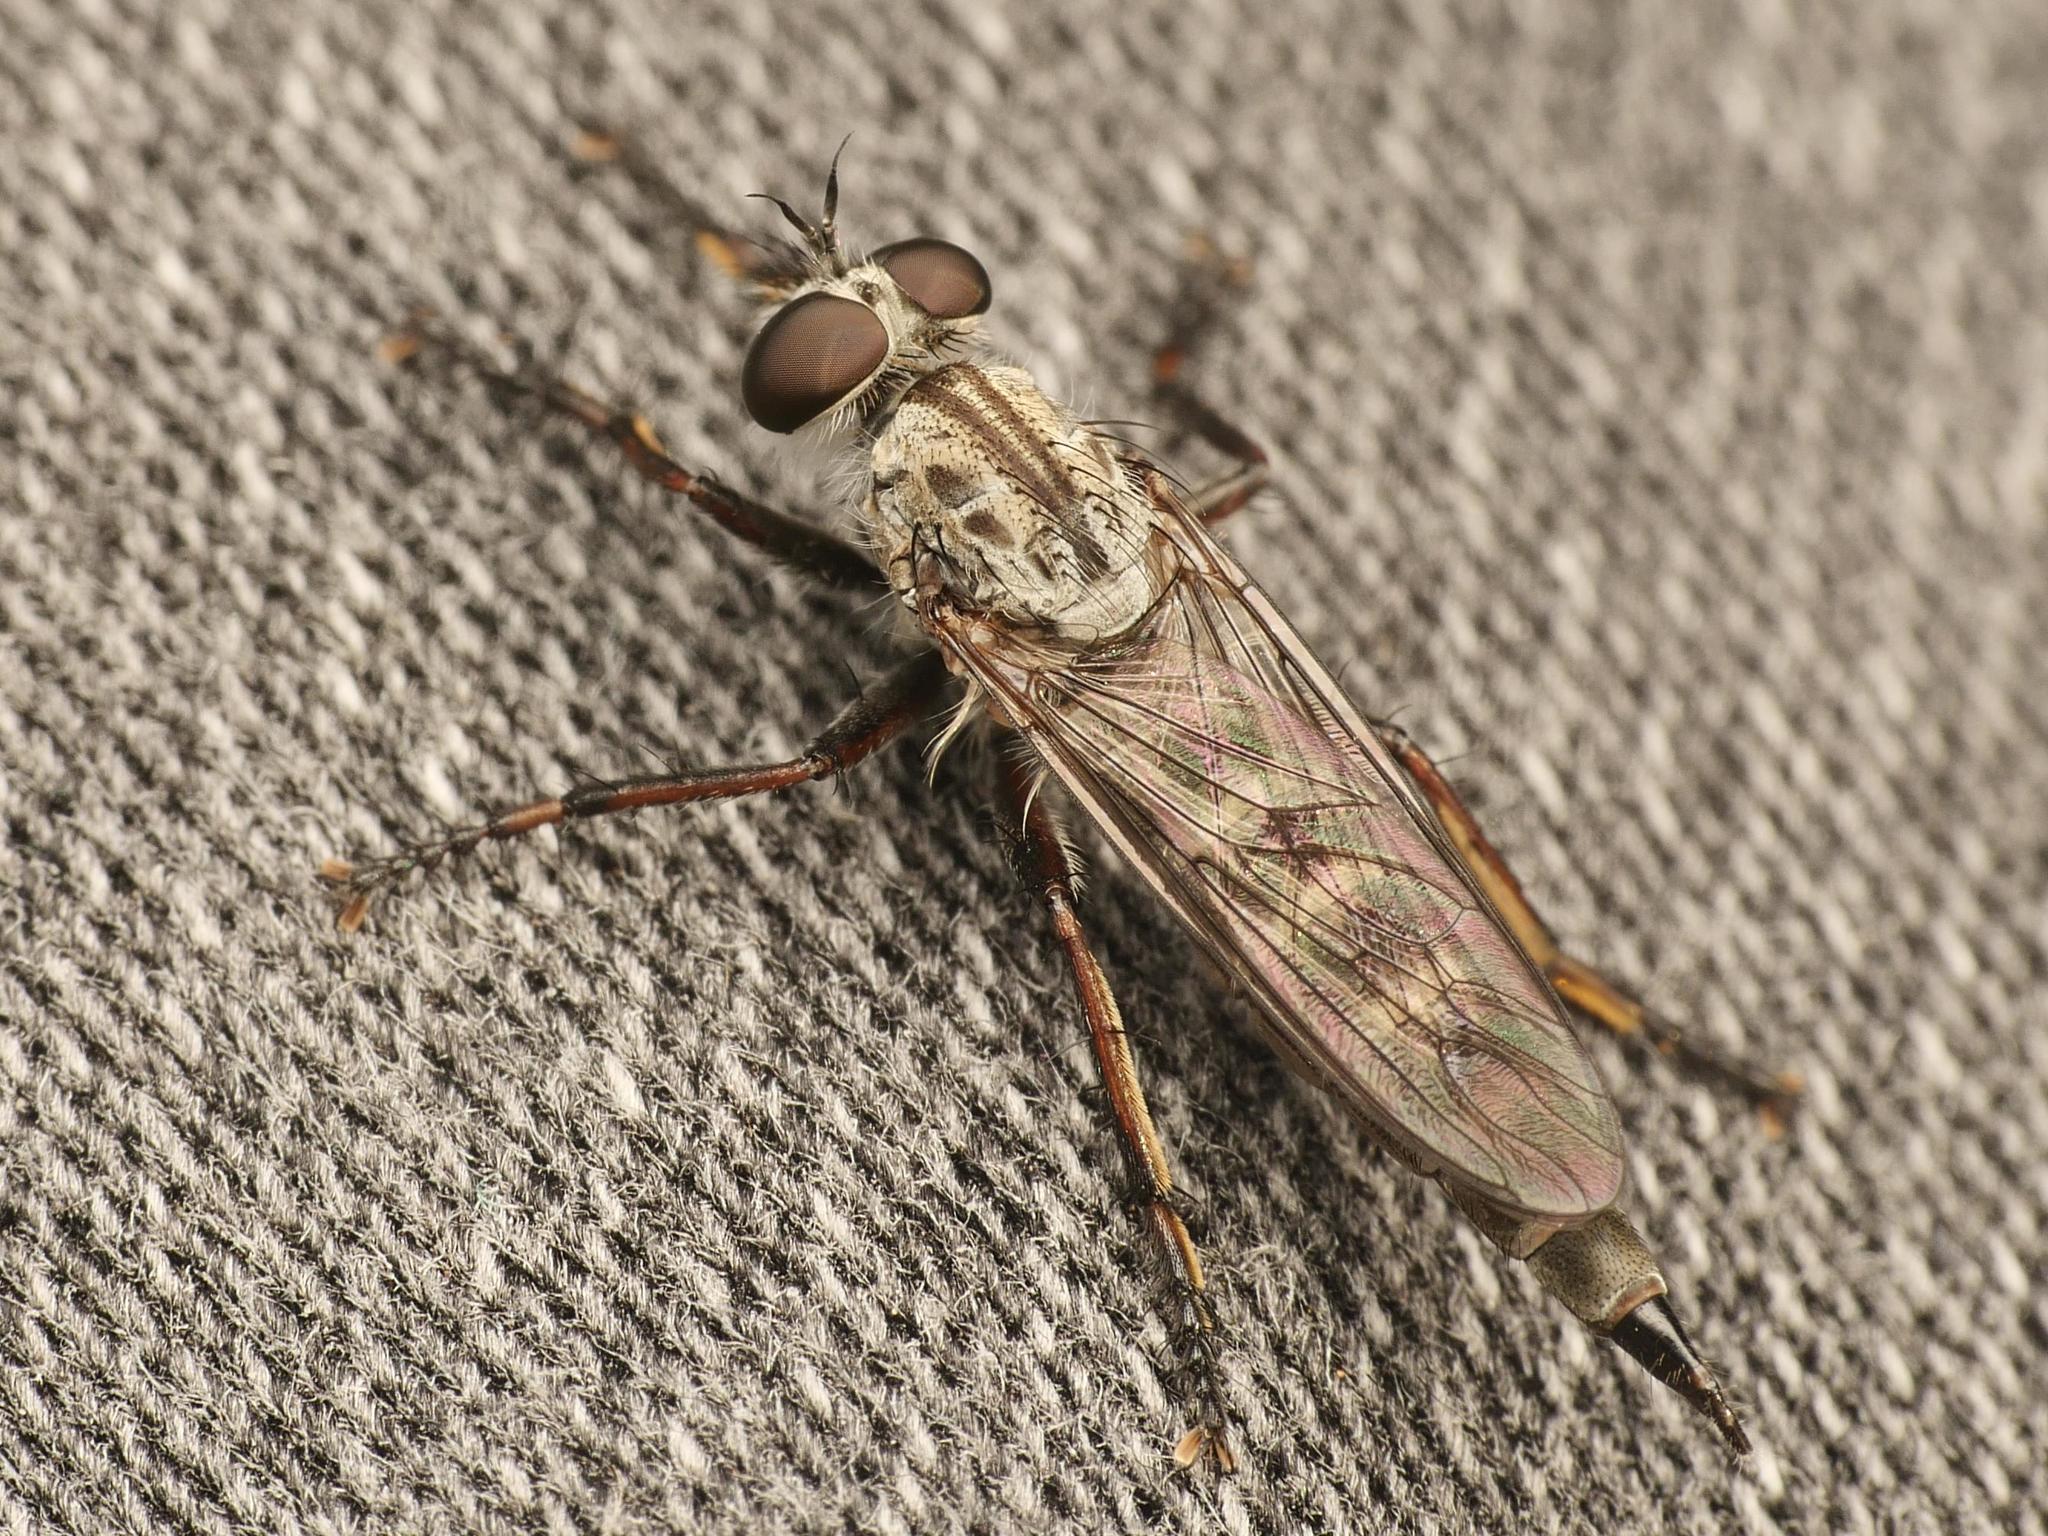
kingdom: Animalia
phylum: Arthropoda
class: Insecta
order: Diptera
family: Asilidae
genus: Machimus
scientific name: Machimus atricapillus
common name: Kite-tailed robberfly
